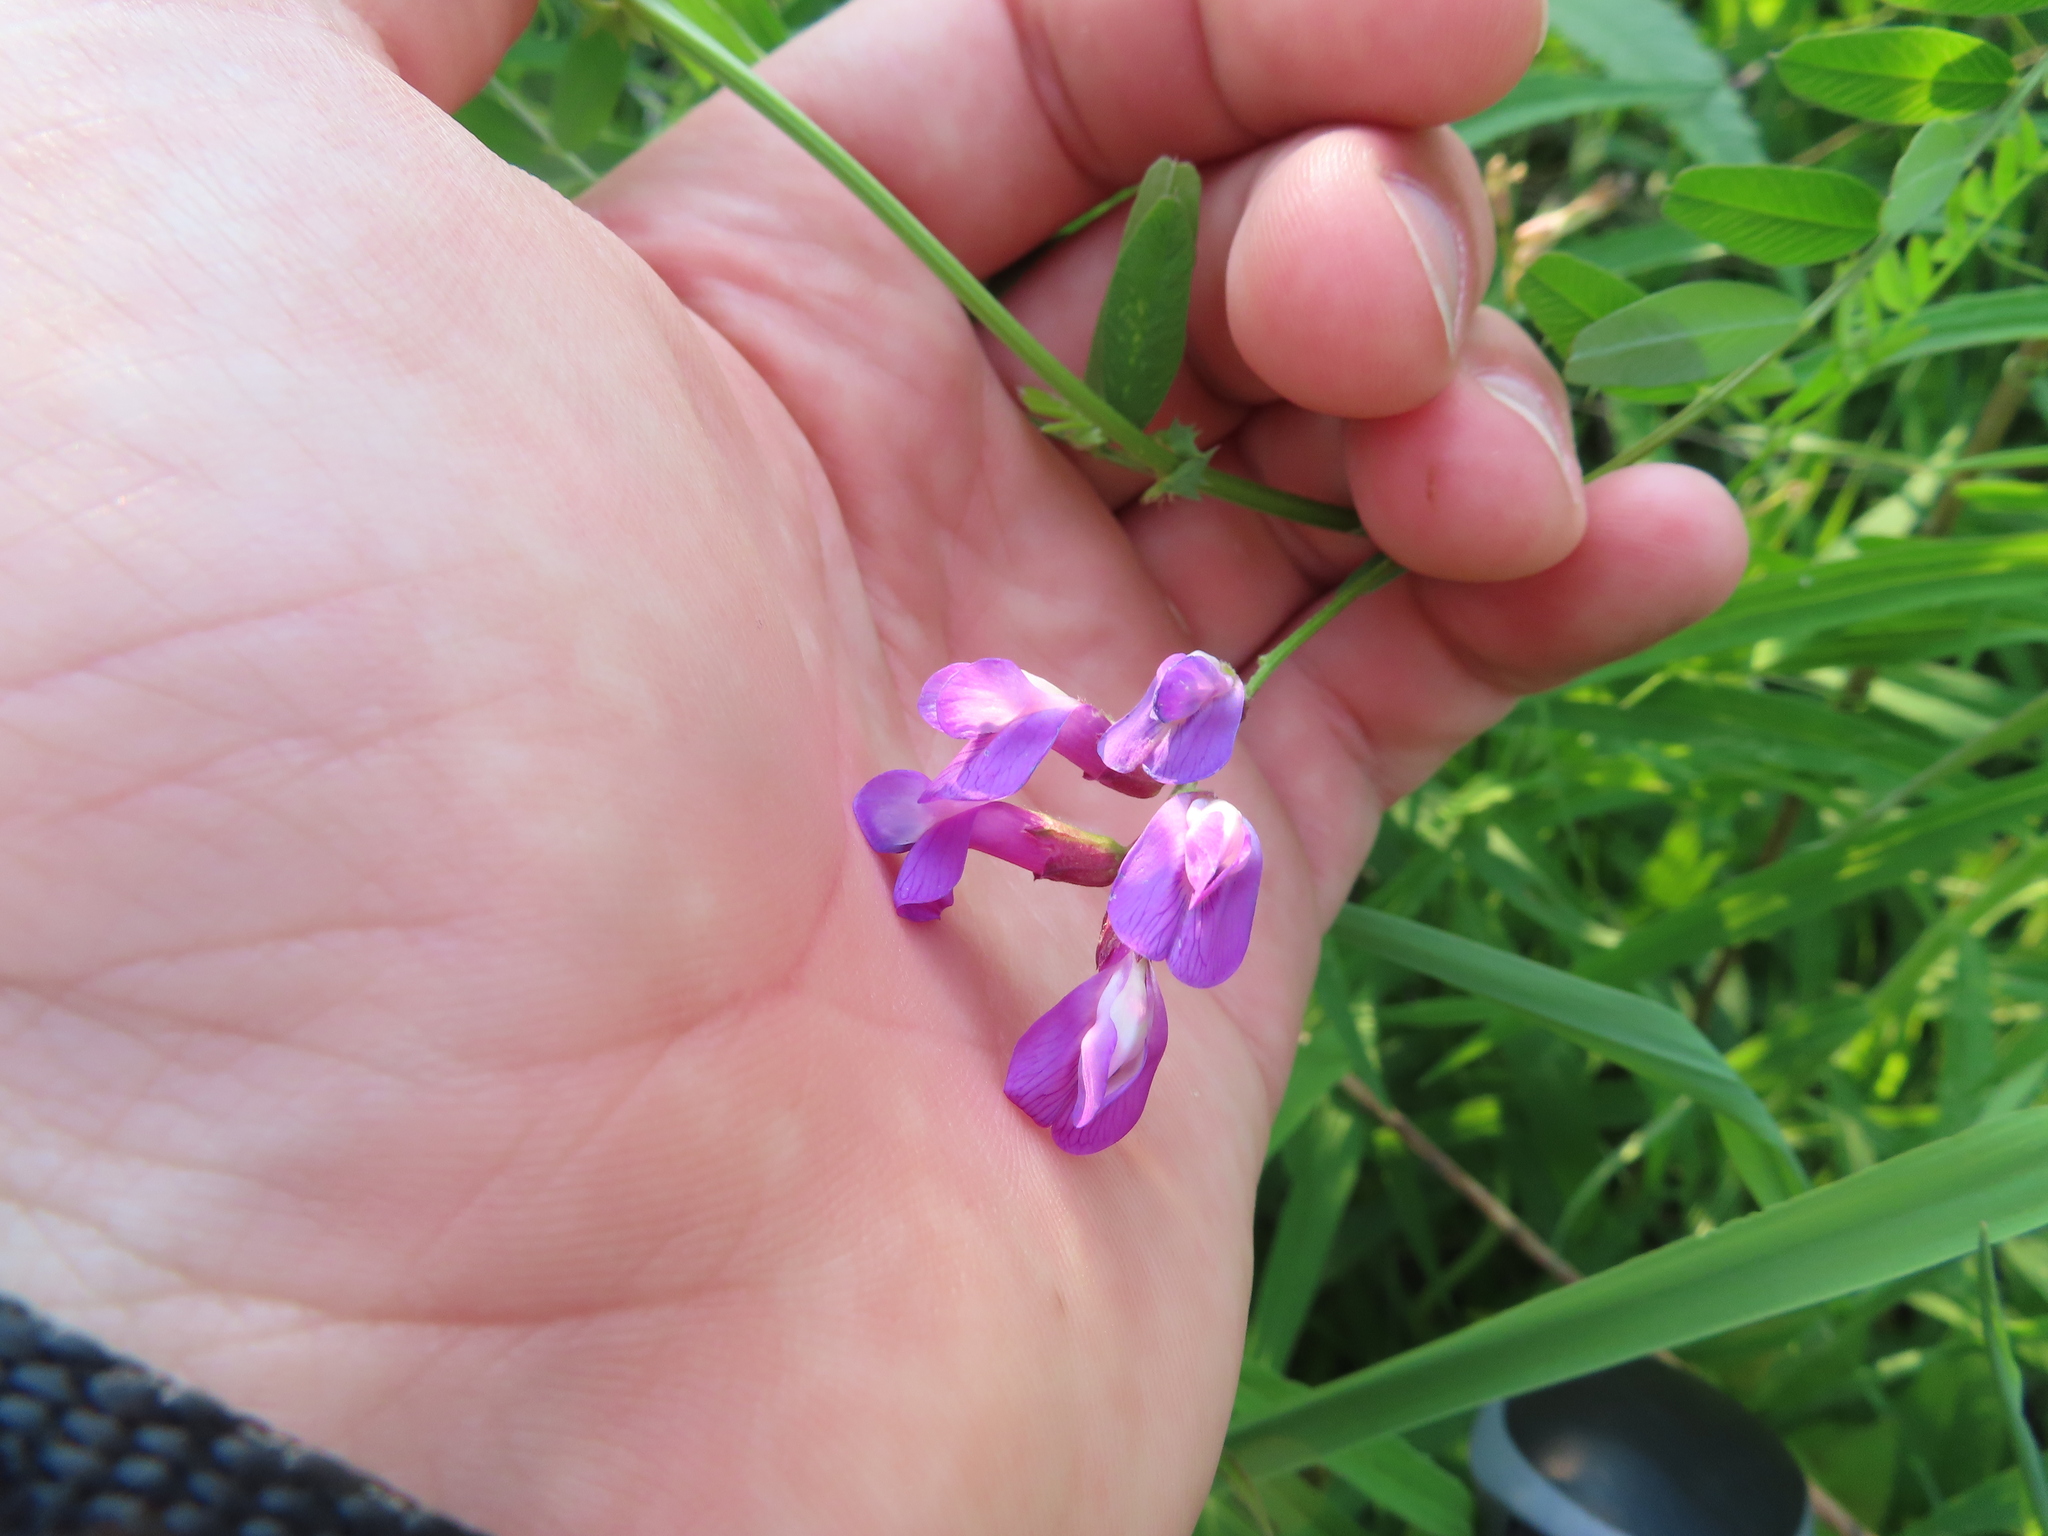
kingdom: Plantae
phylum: Tracheophyta
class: Magnoliopsida
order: Fabales
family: Fabaceae
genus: Vicia
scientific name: Vicia americana
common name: American vetch
